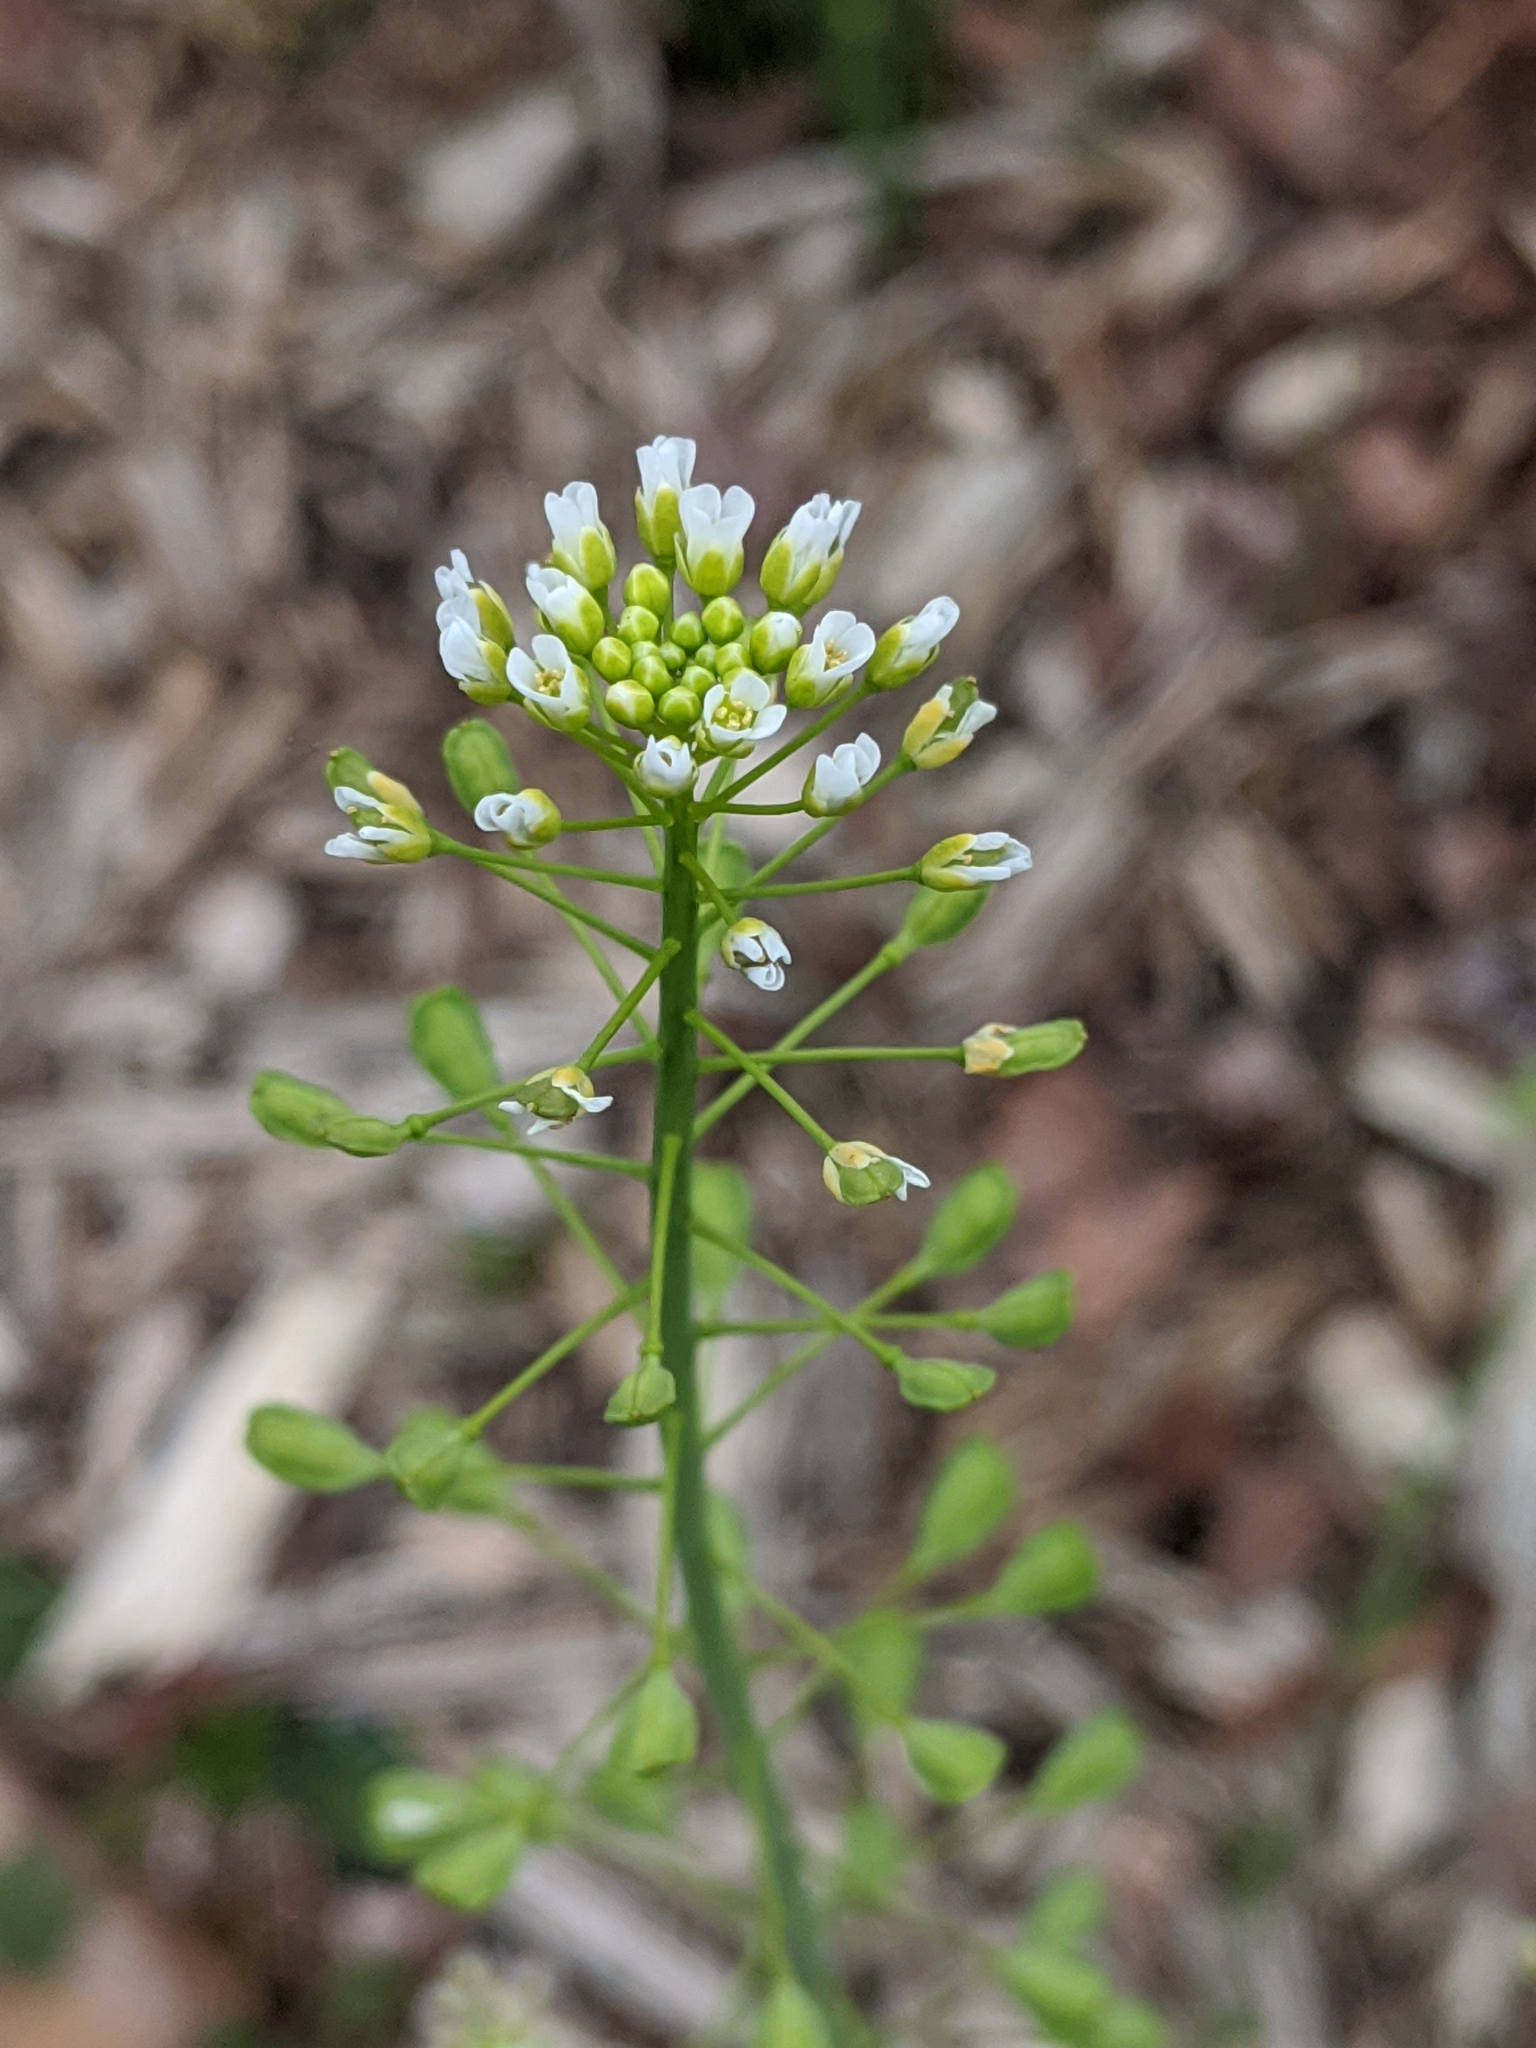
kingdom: Plantae
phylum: Tracheophyta
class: Magnoliopsida
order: Brassicales
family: Brassicaceae
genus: Mummenhoffia
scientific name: Mummenhoffia alliacea
